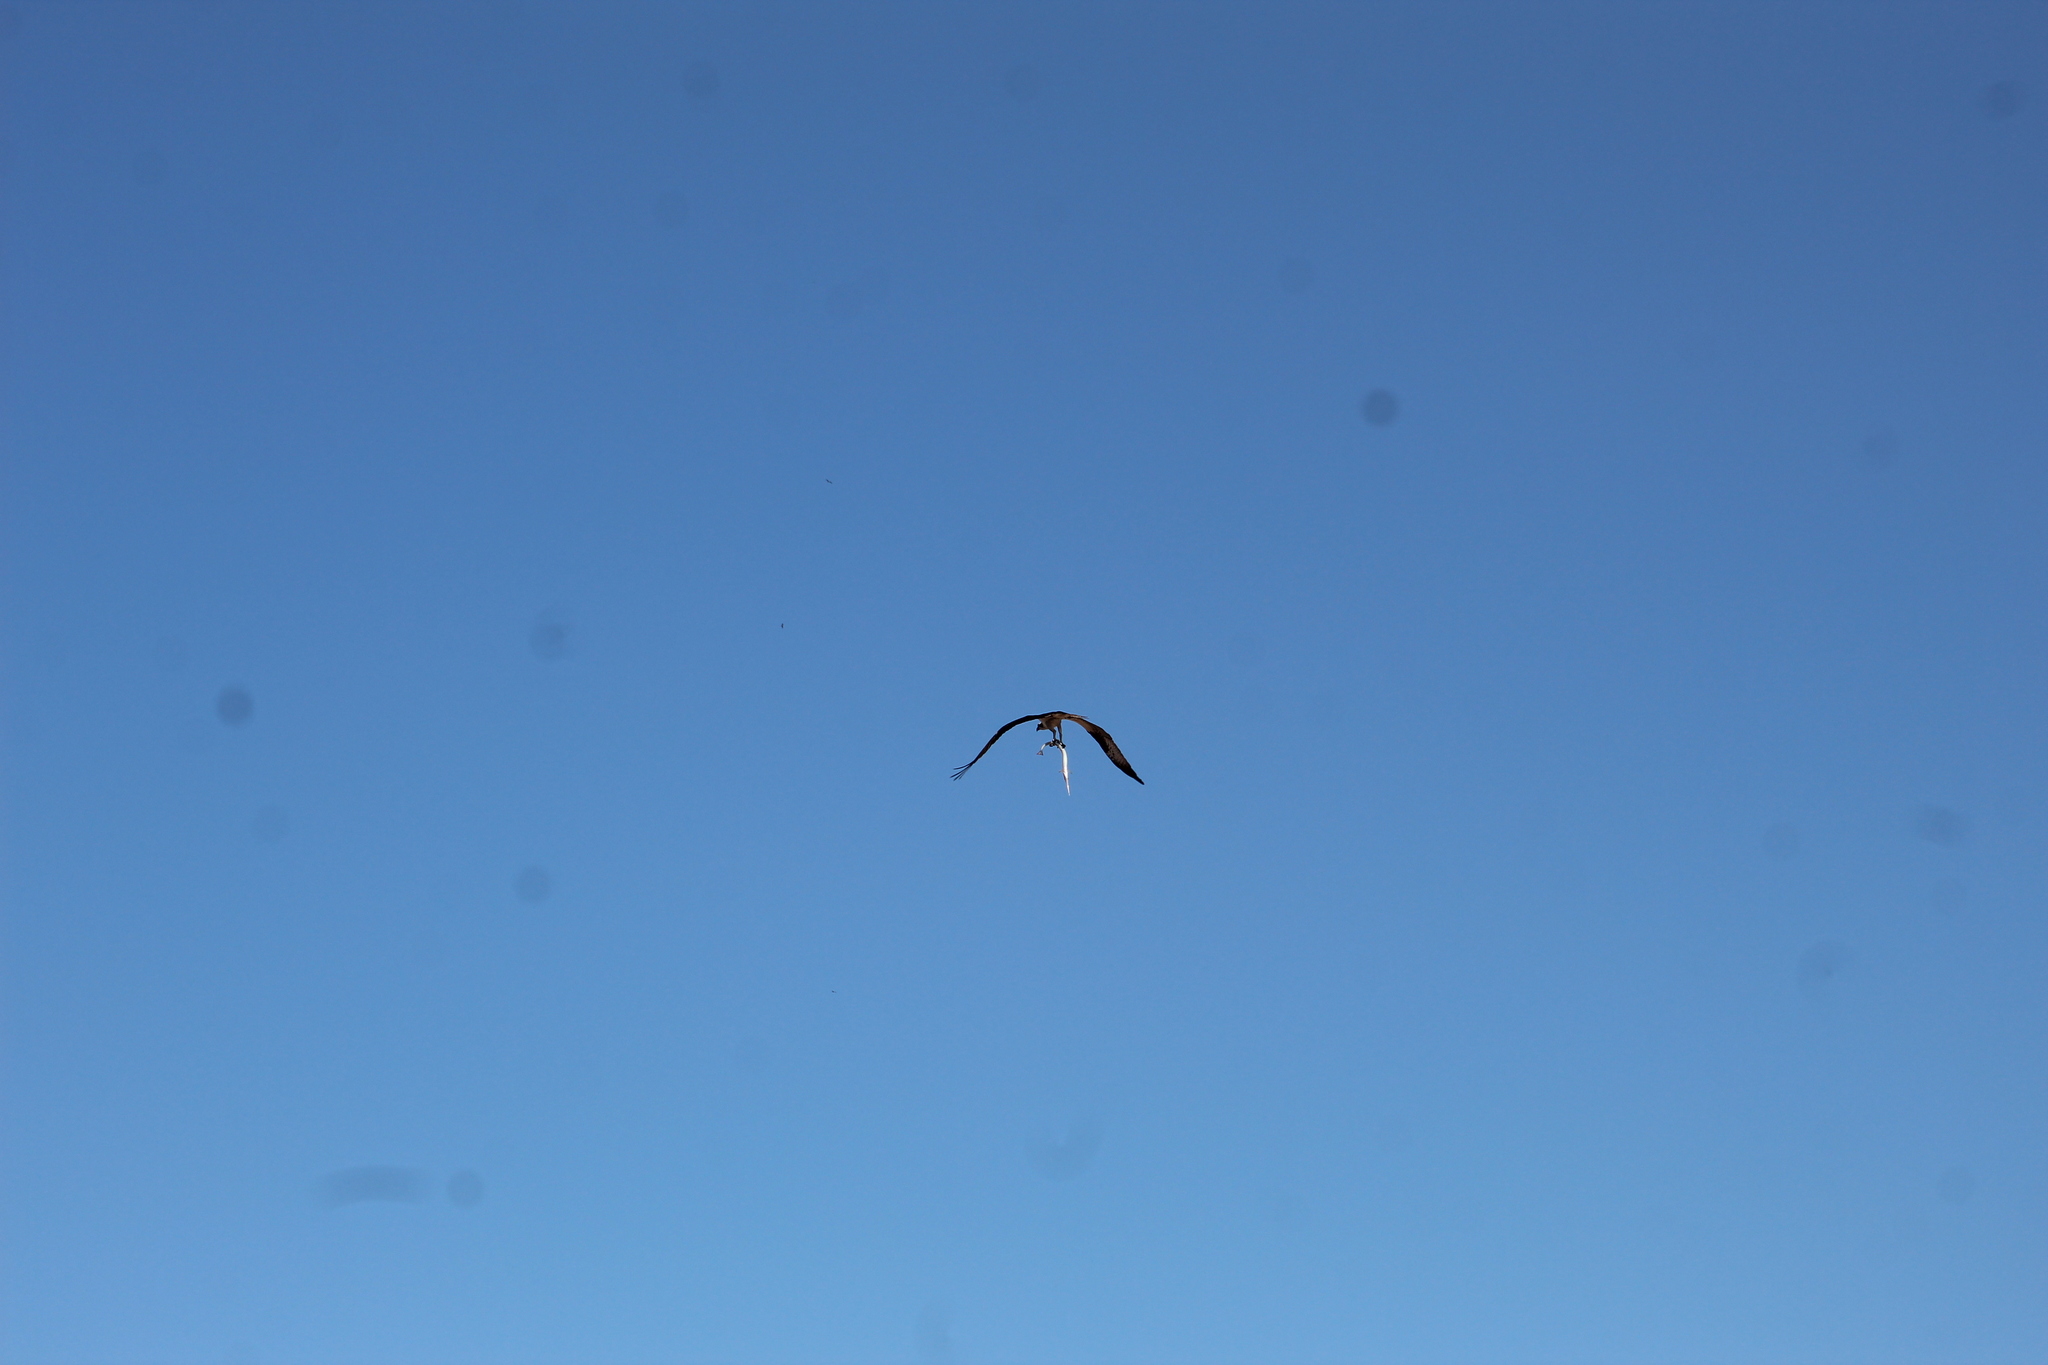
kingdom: Animalia
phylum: Chordata
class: Aves
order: Accipitriformes
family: Pandionidae
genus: Pandion
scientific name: Pandion haliaetus
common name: Osprey
